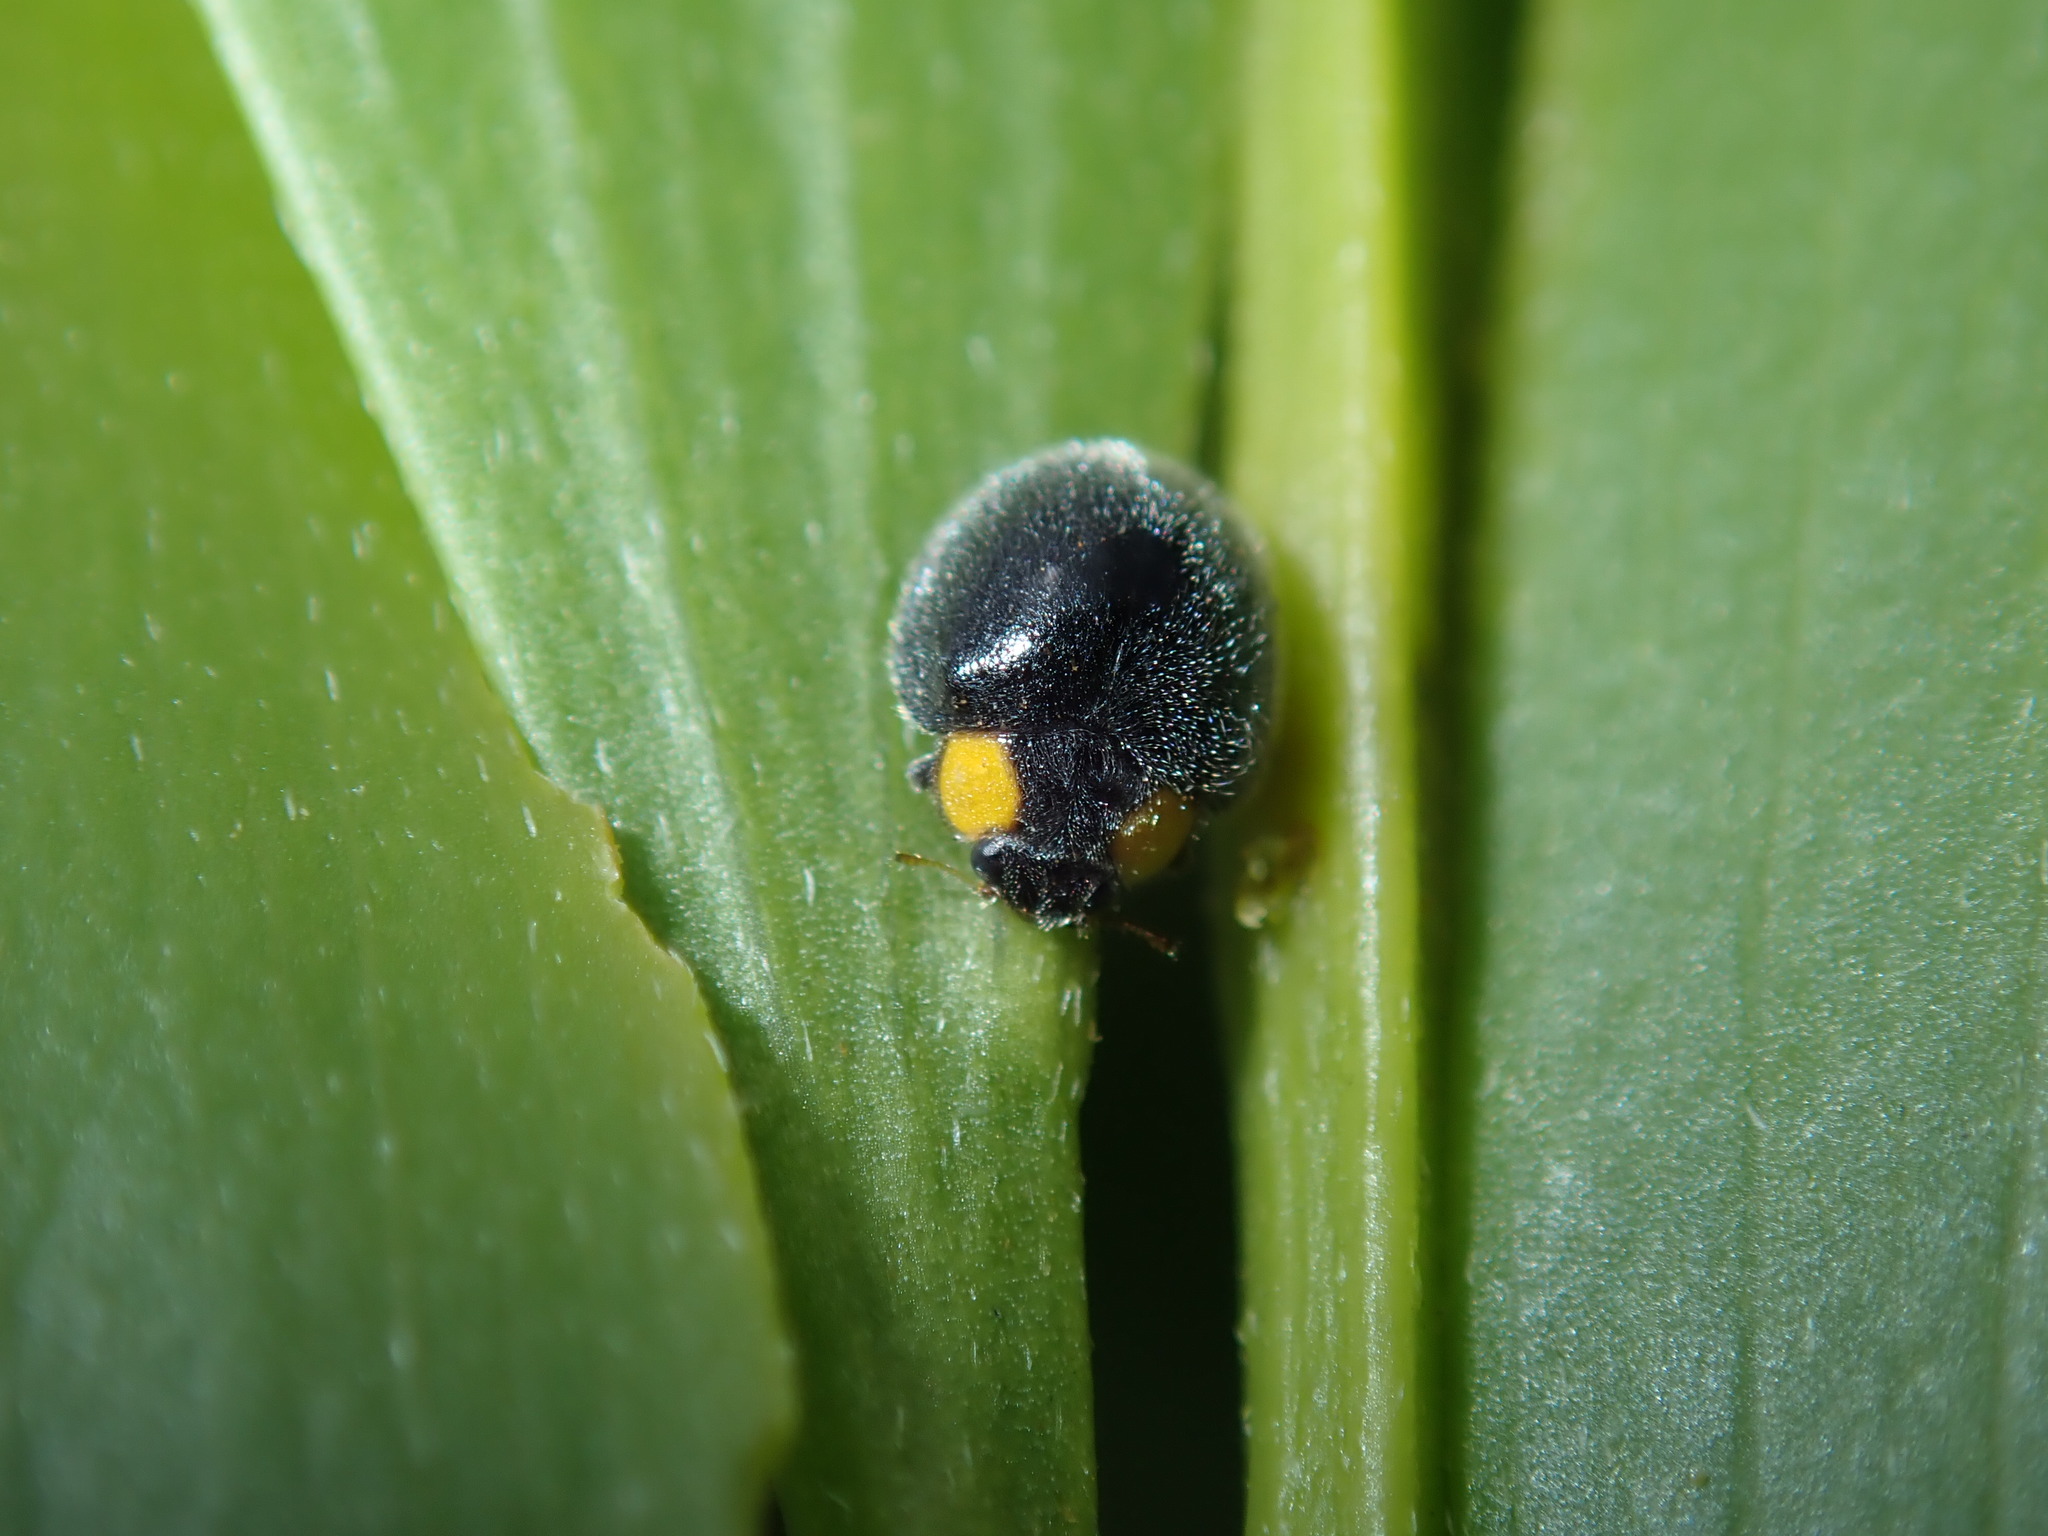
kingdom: Animalia
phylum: Arthropoda
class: Insecta
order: Coleoptera
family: Coccinellidae
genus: Scymnodes
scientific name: Scymnodes lividigaster
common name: Yellowshouldered lady beetle
